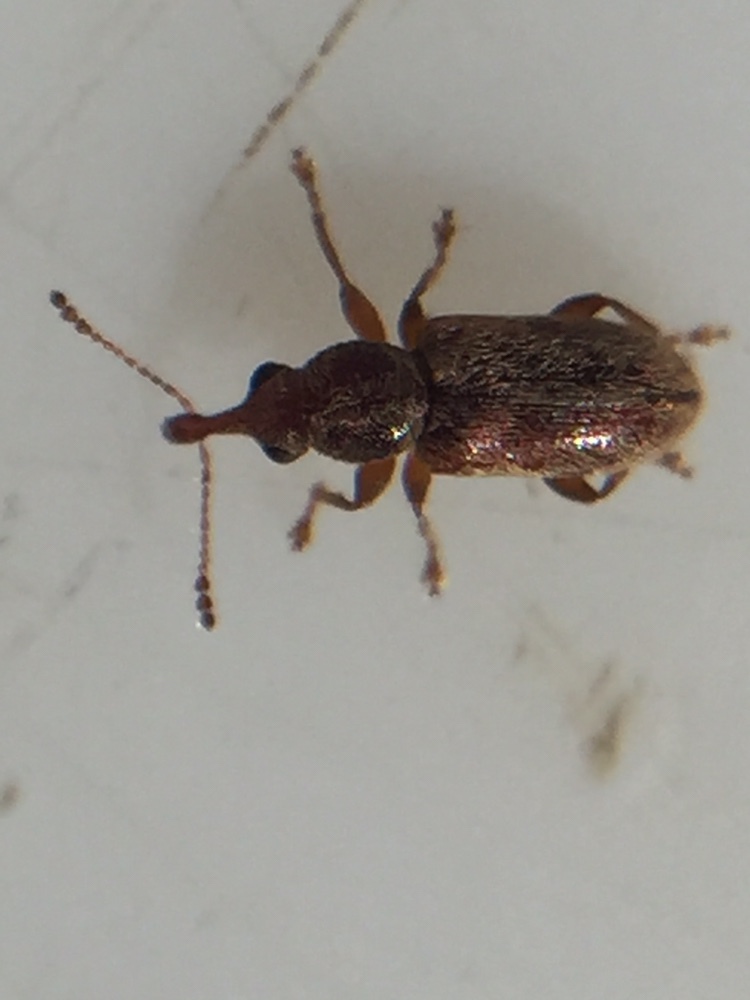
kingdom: Animalia
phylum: Arthropoda
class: Insecta
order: Coleoptera
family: Nemonychidae
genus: Rhinorhynchus
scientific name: Rhinorhynchus rufulus
